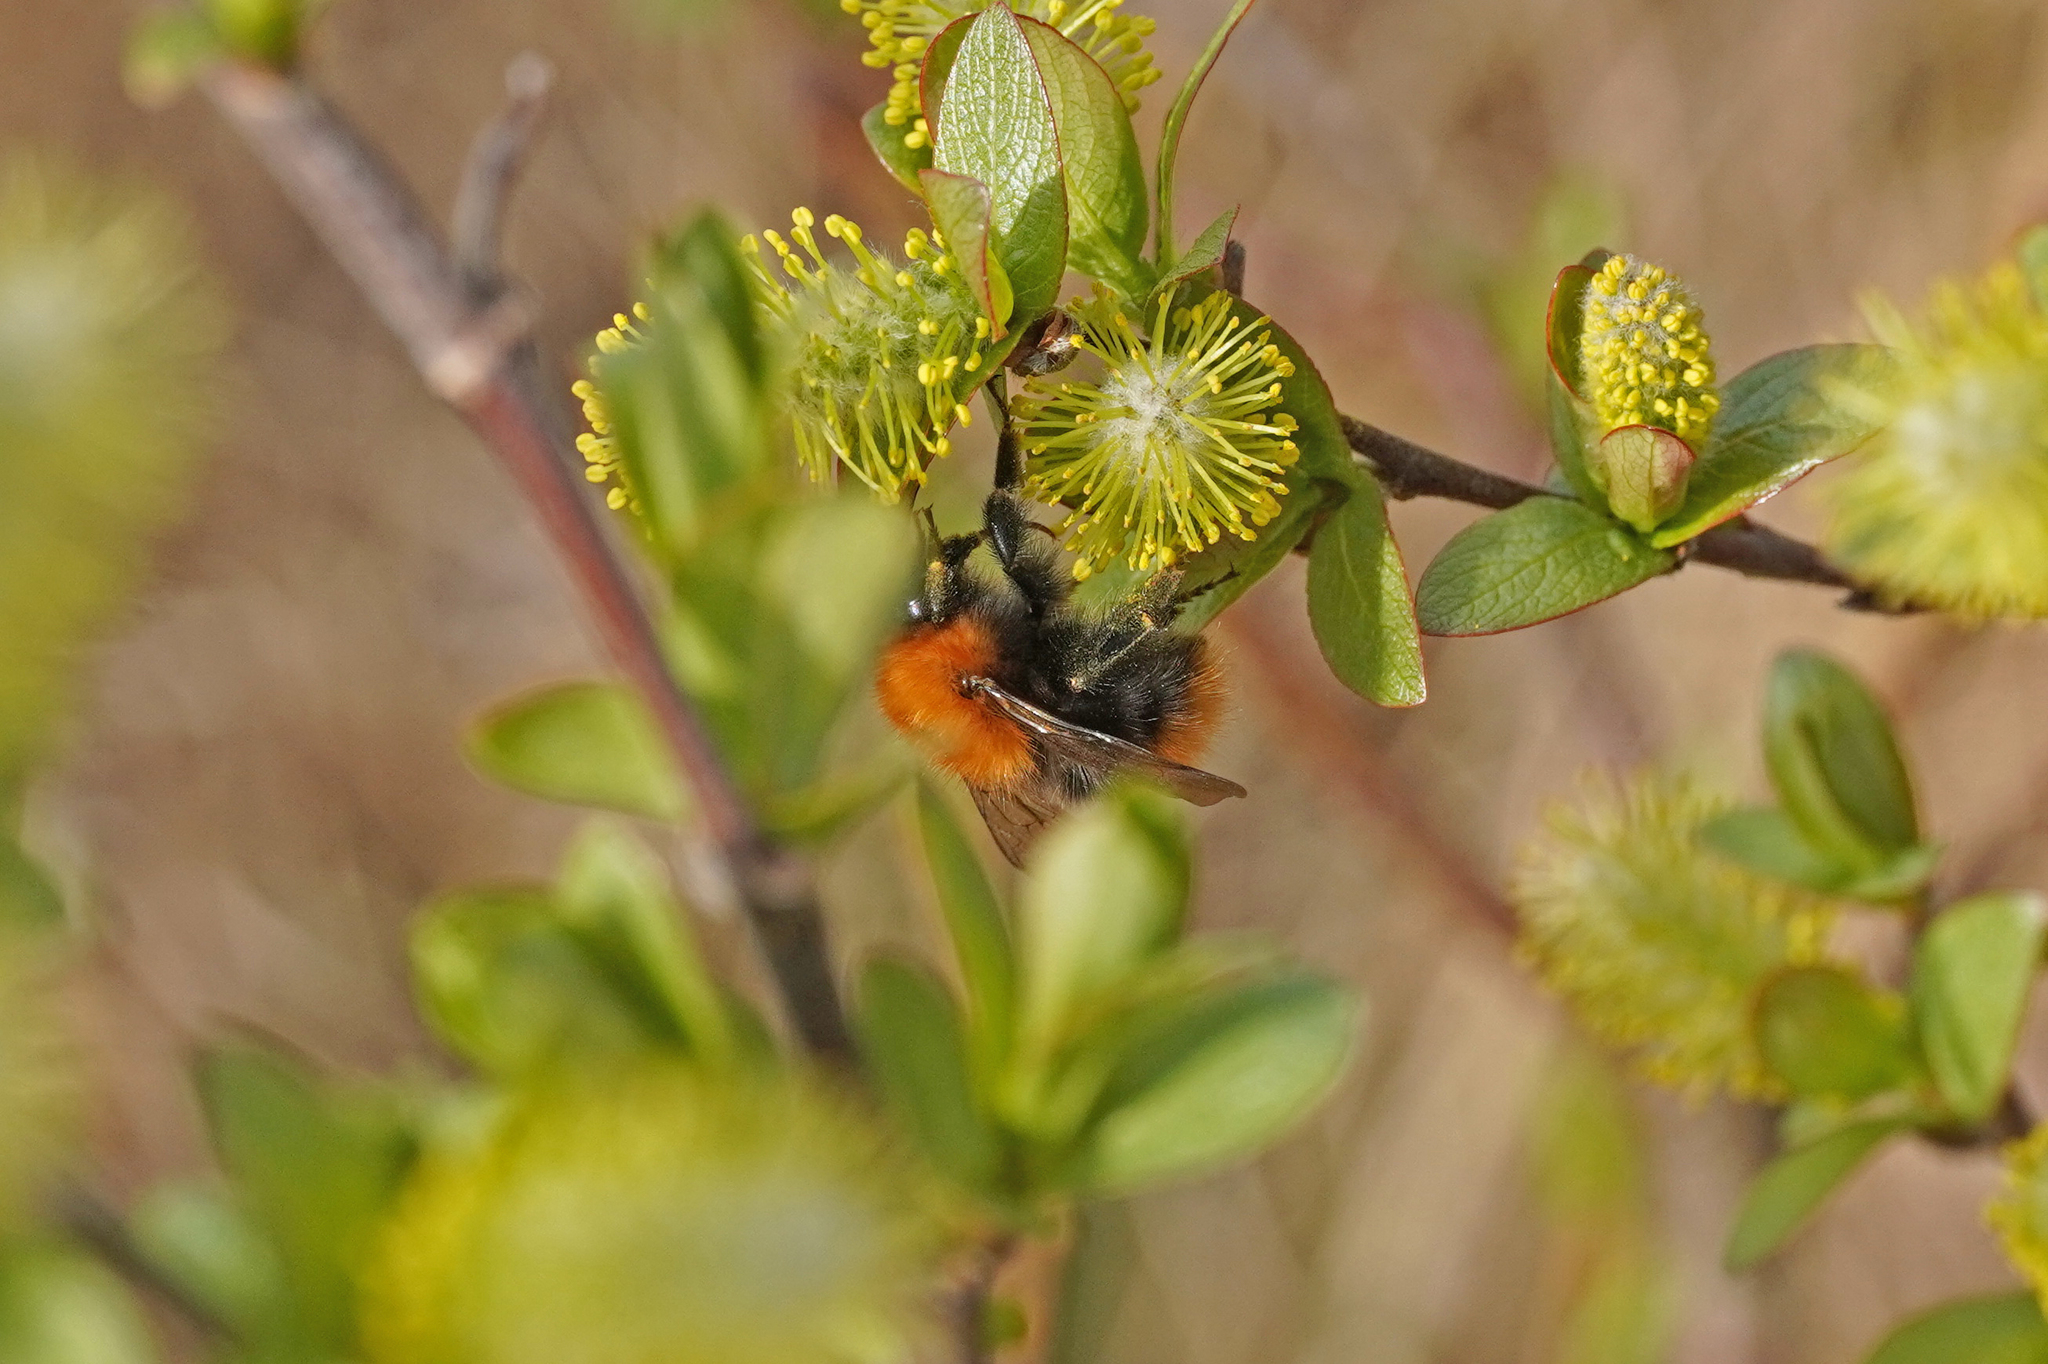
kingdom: Animalia
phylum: Arthropoda
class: Insecta
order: Hymenoptera
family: Apidae
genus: Bombus
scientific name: Bombus pascuorum
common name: Common carder bee
